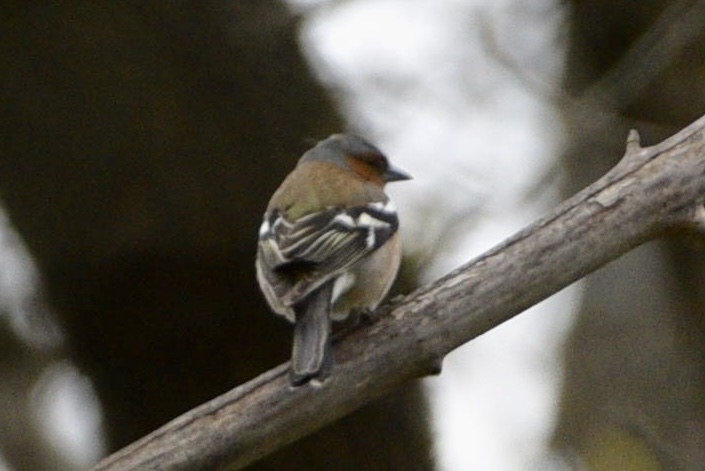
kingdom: Animalia
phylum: Chordata
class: Aves
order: Passeriformes
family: Fringillidae
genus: Fringilla
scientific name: Fringilla coelebs
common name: Common chaffinch
